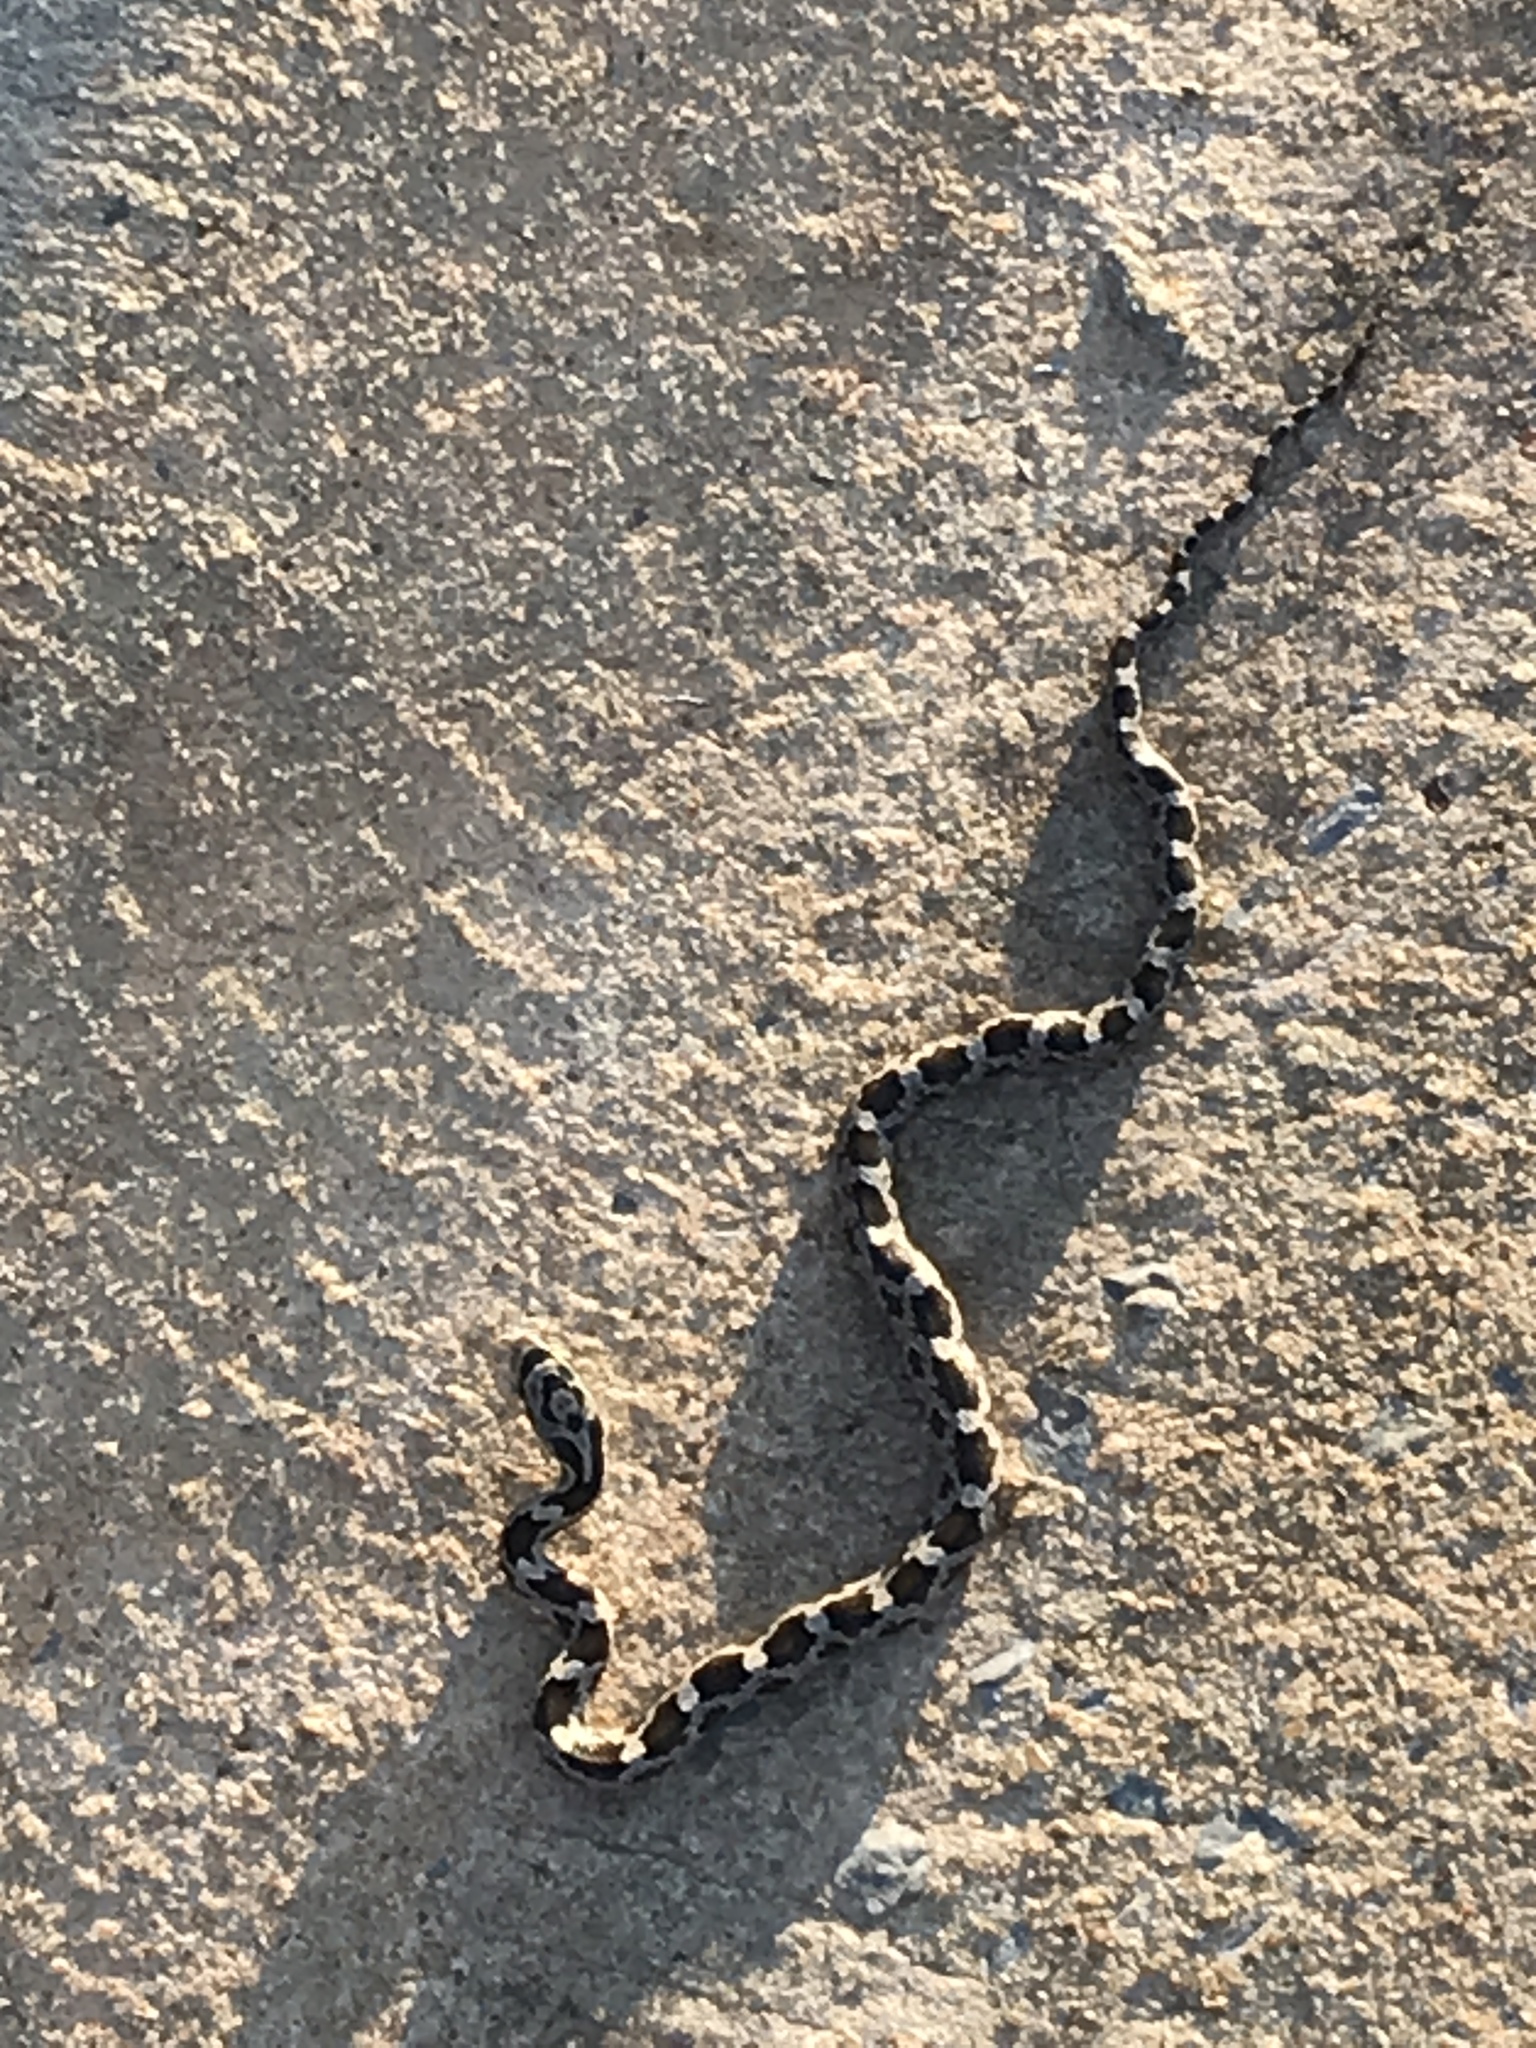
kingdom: Animalia
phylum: Chordata
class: Squamata
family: Colubridae
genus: Pantherophis
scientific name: Pantherophis obsoletus
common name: Black rat snake
